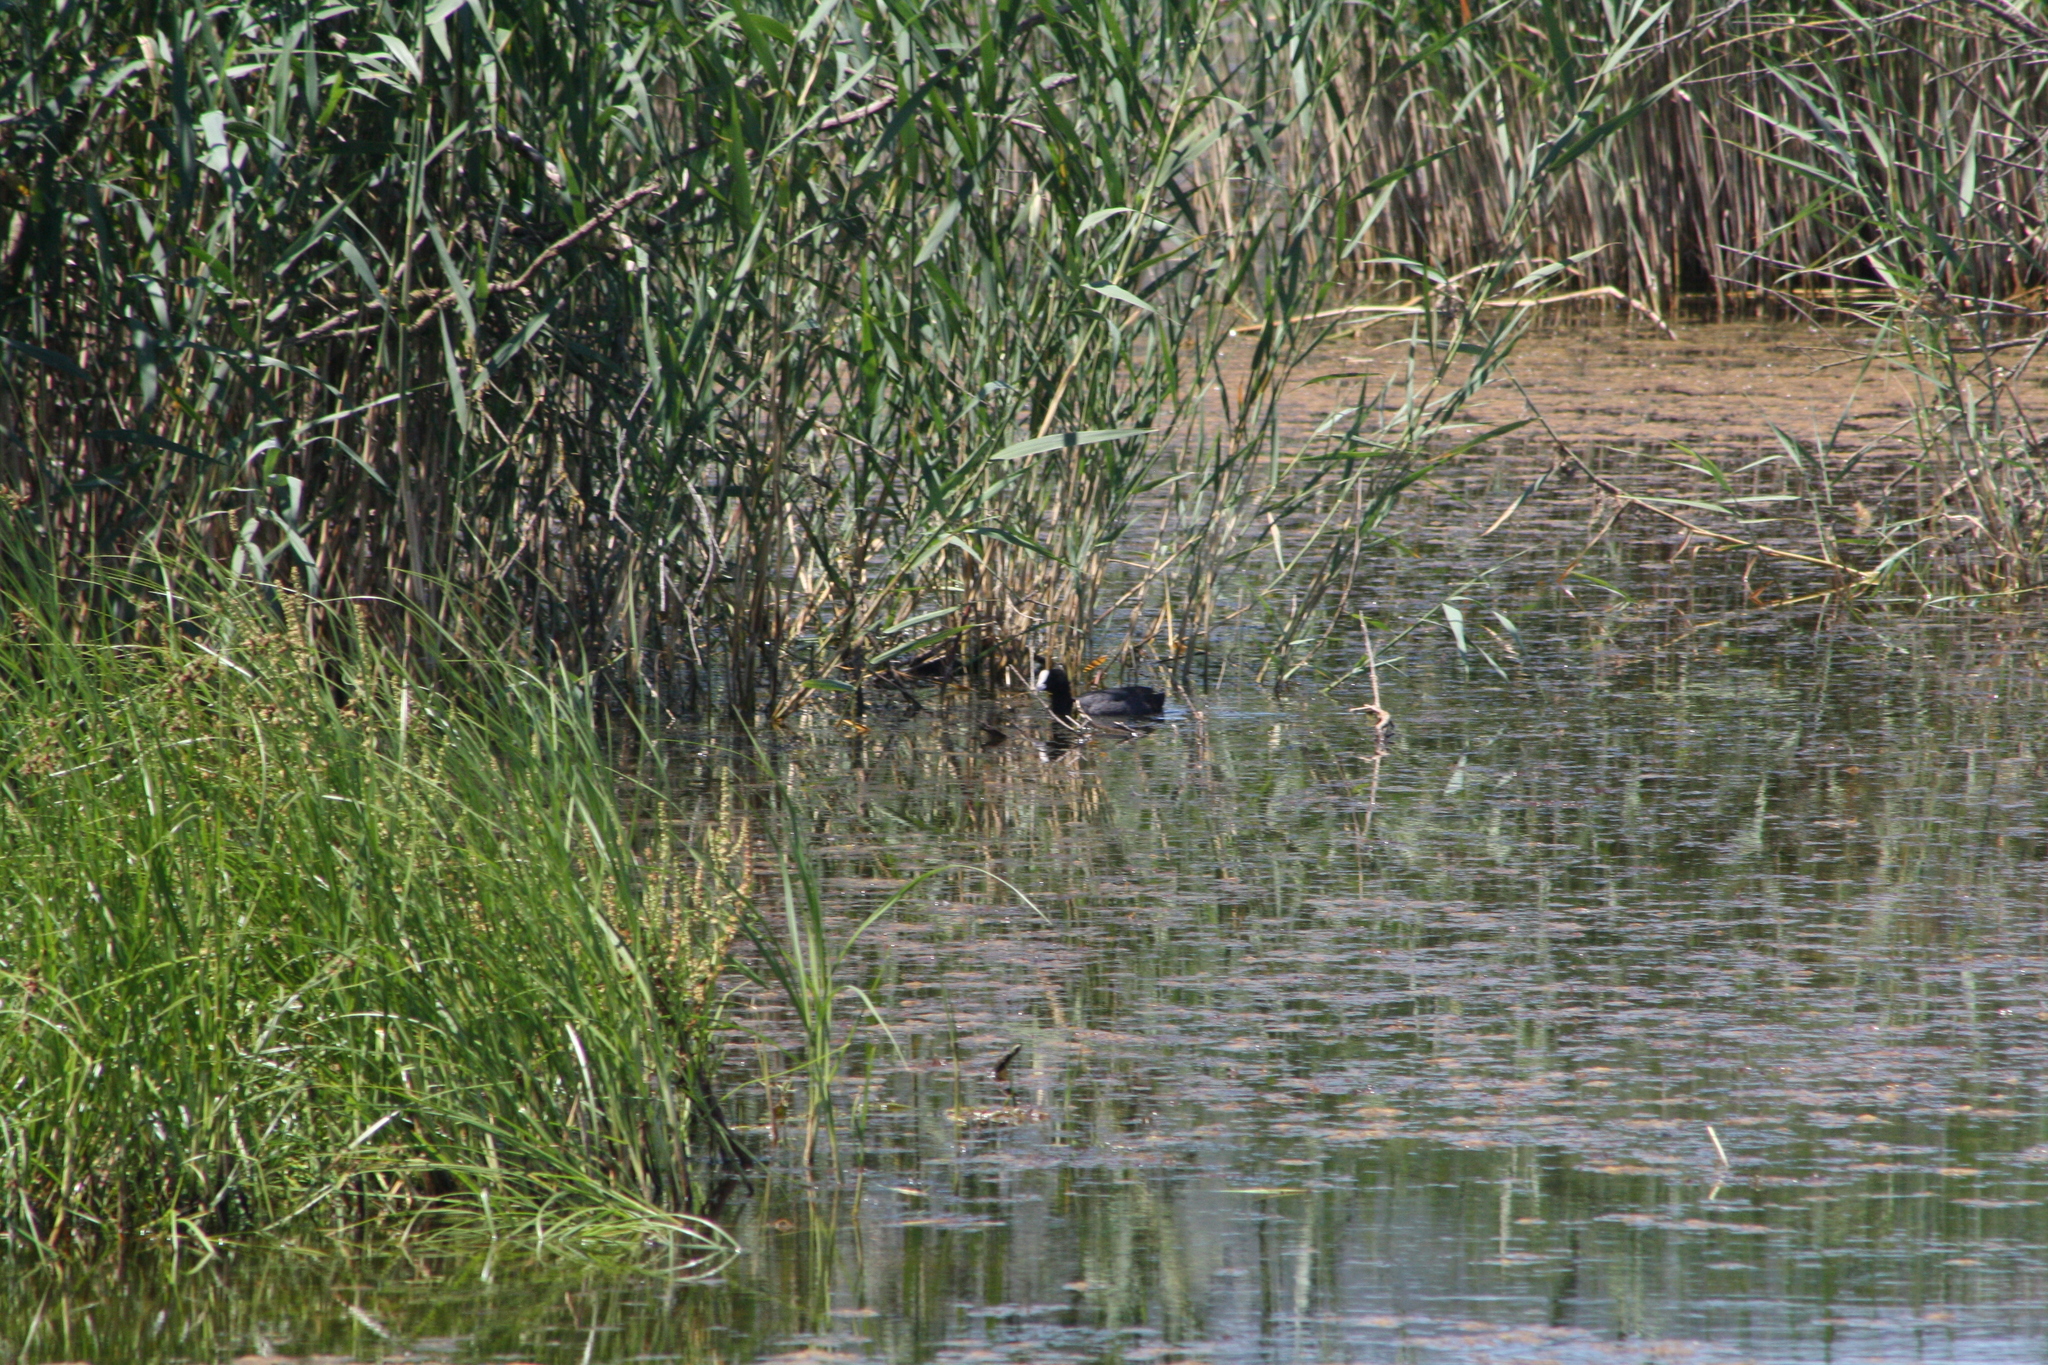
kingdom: Animalia
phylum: Chordata
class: Aves
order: Gruiformes
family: Rallidae
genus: Fulica
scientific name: Fulica atra
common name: Eurasian coot
